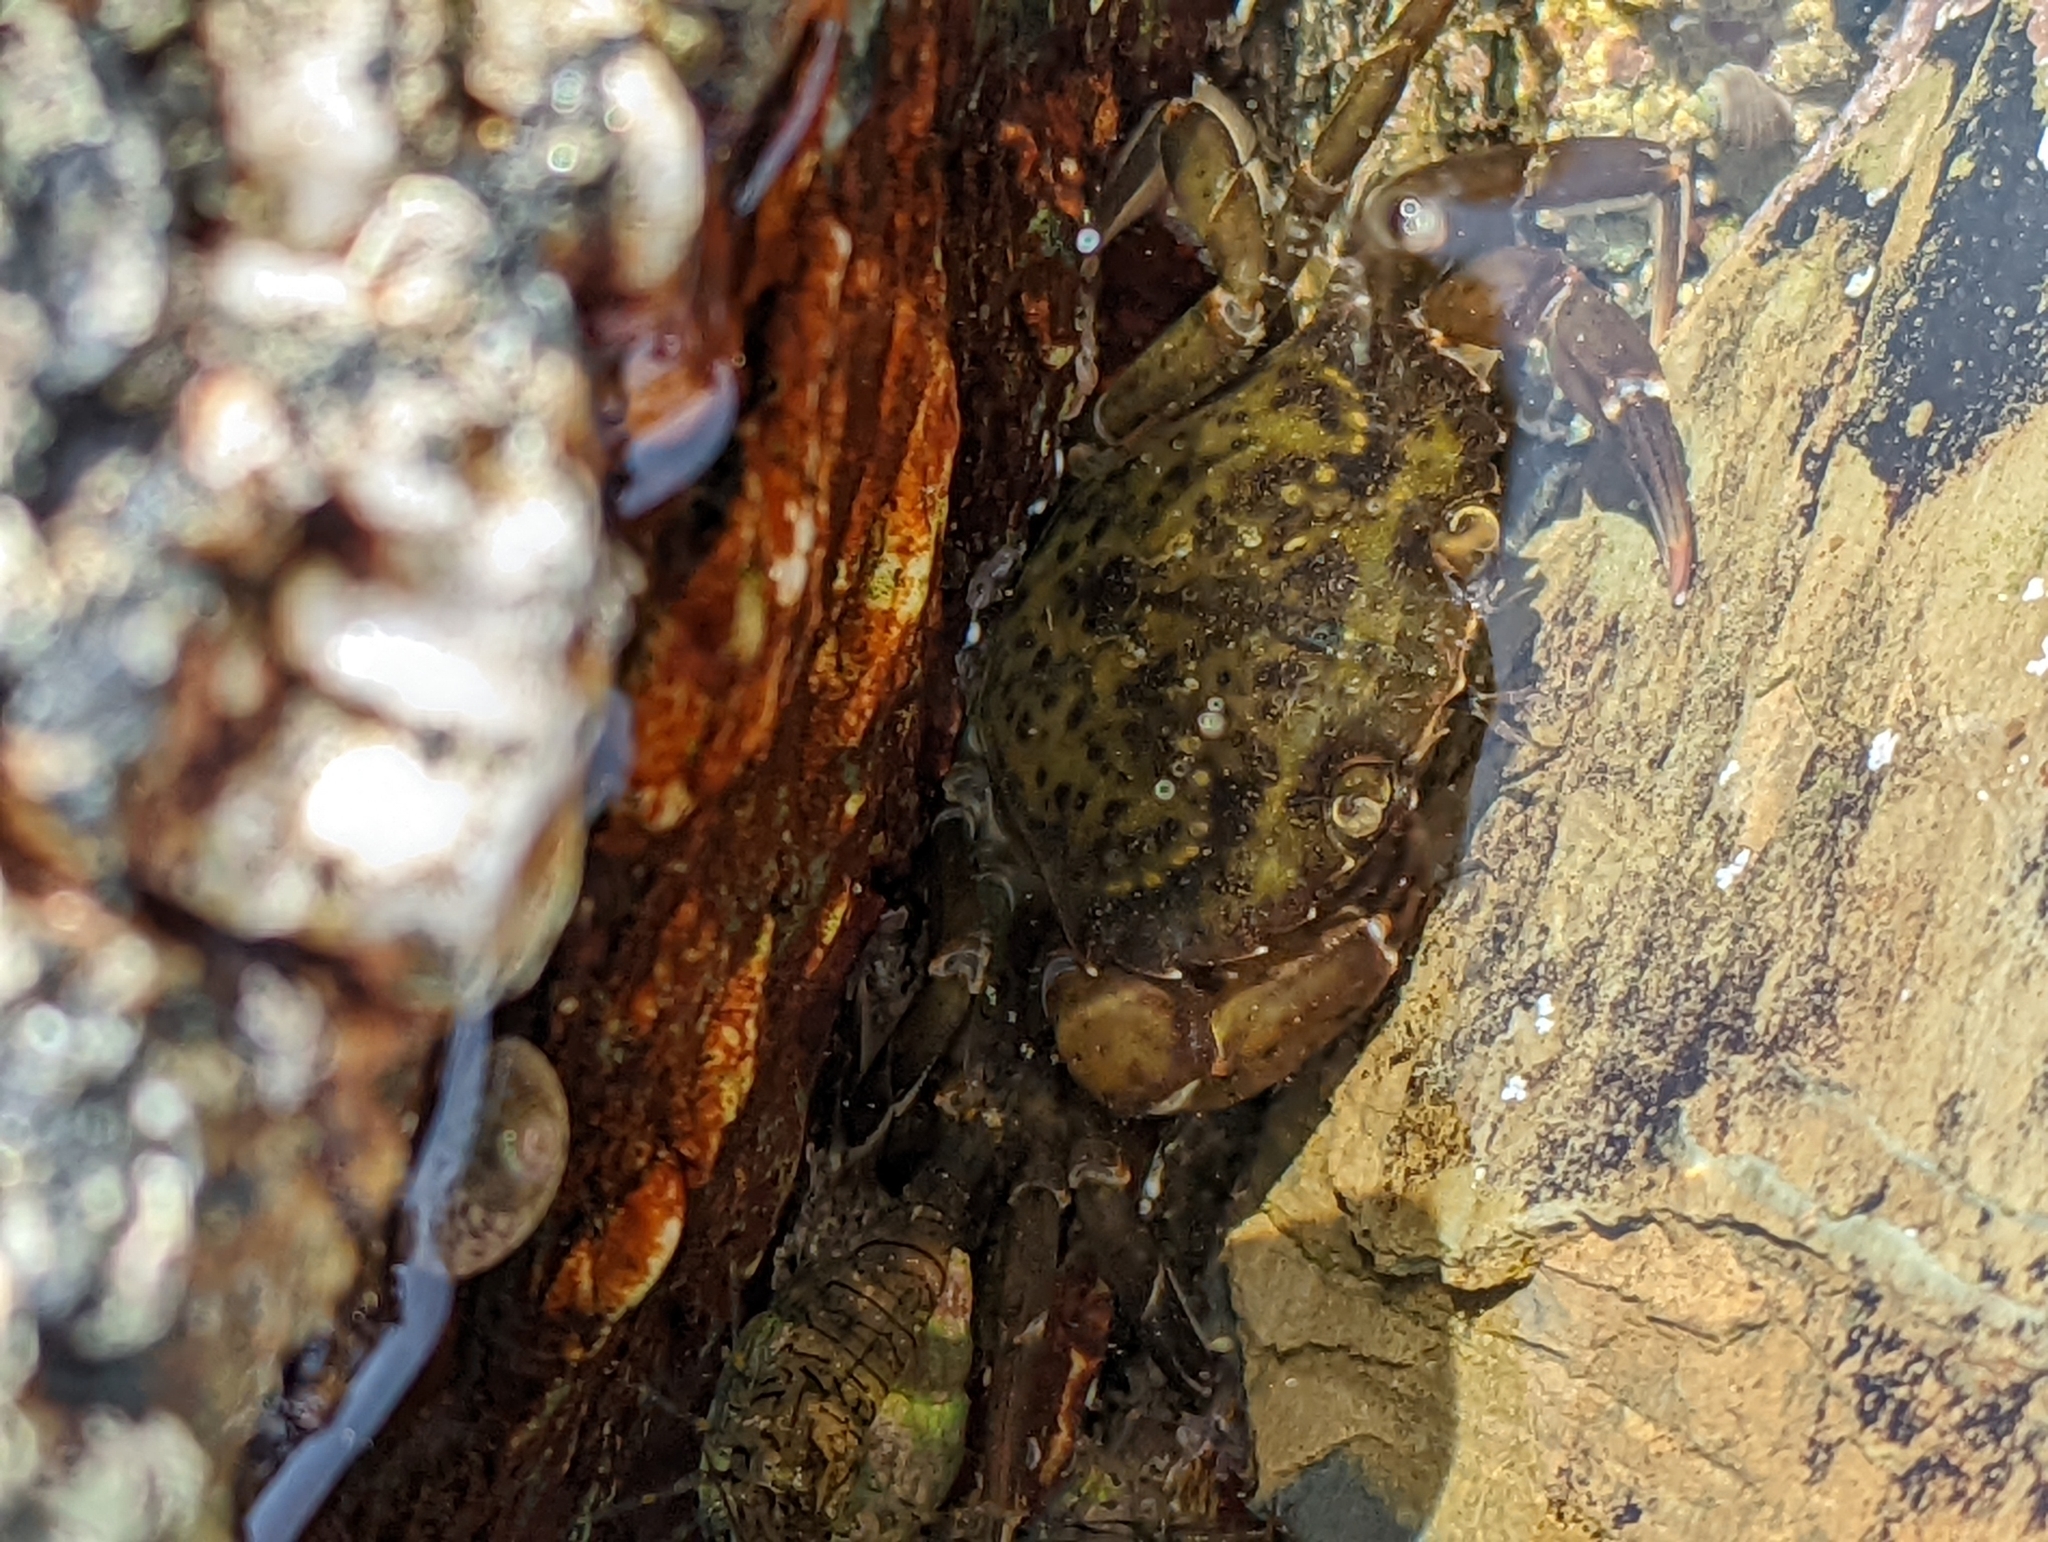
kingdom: Animalia
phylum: Arthropoda
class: Malacostraca
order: Decapoda
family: Carcinidae
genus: Carcinus
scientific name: Carcinus maenas
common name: European green crab
